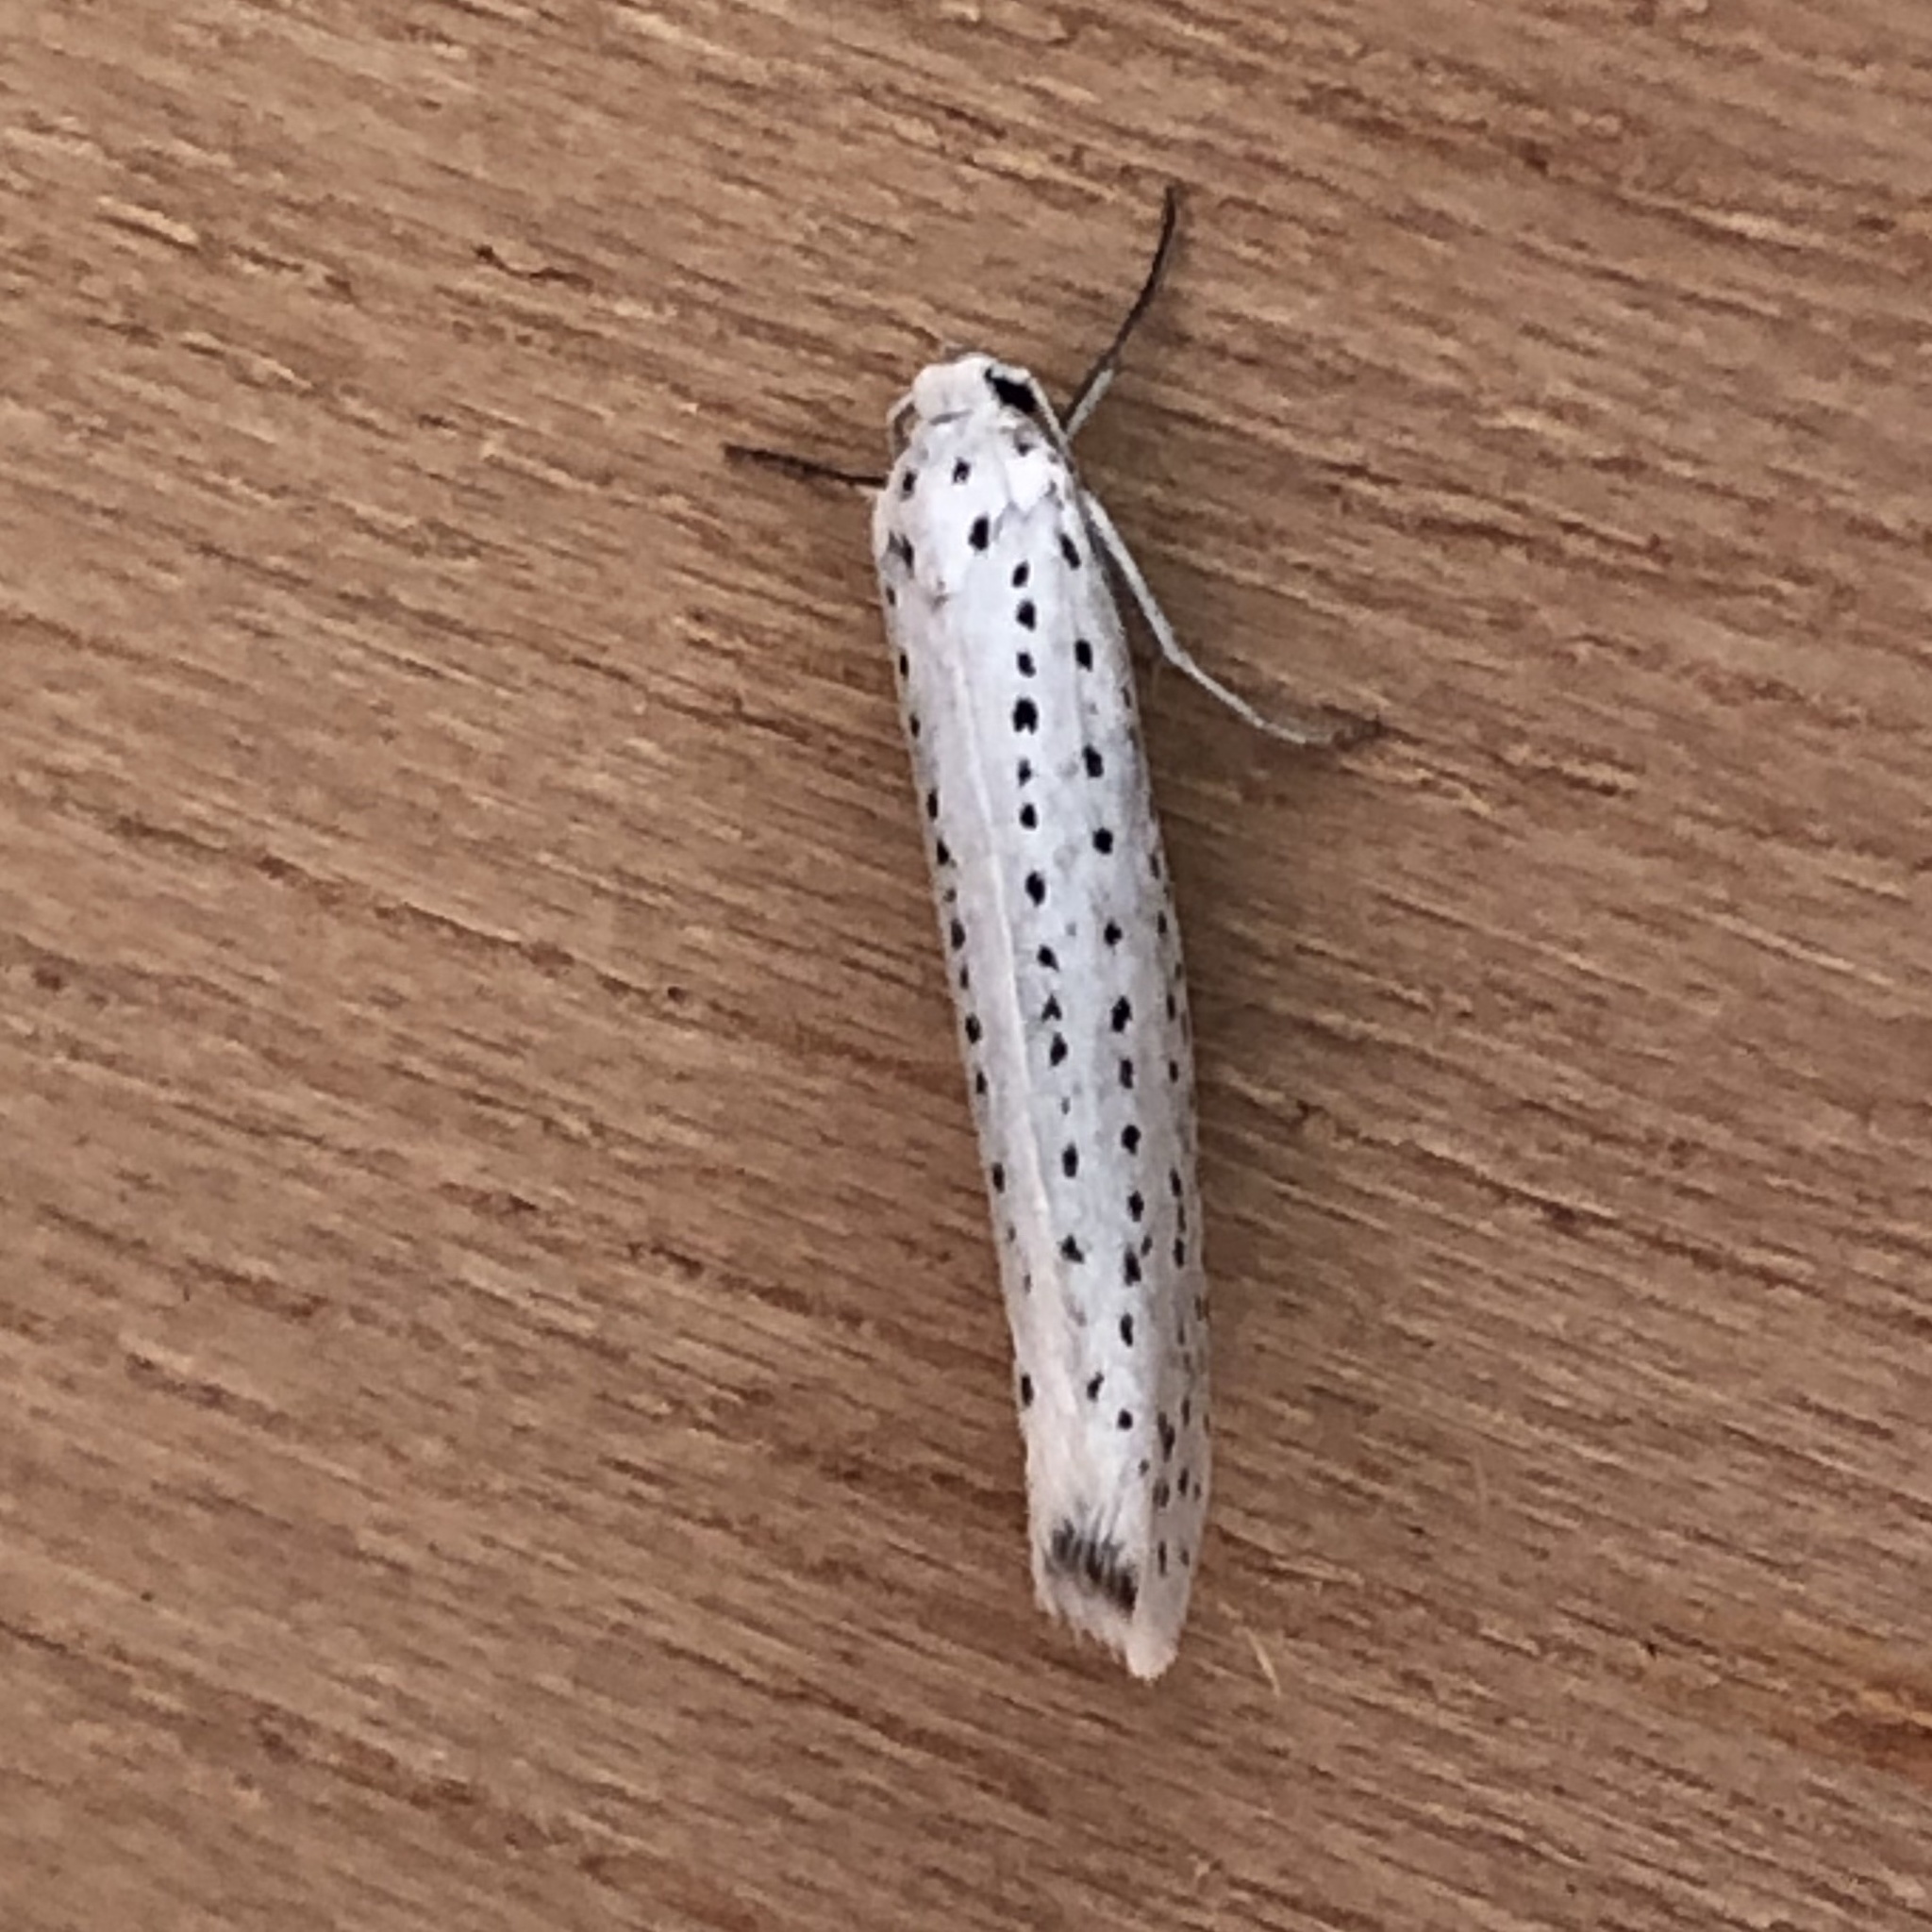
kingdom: Animalia
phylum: Arthropoda
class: Insecta
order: Lepidoptera
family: Yponomeutidae
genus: Yponomeuta
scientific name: Yponomeuta evonymella
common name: Bird-cherry ermine
